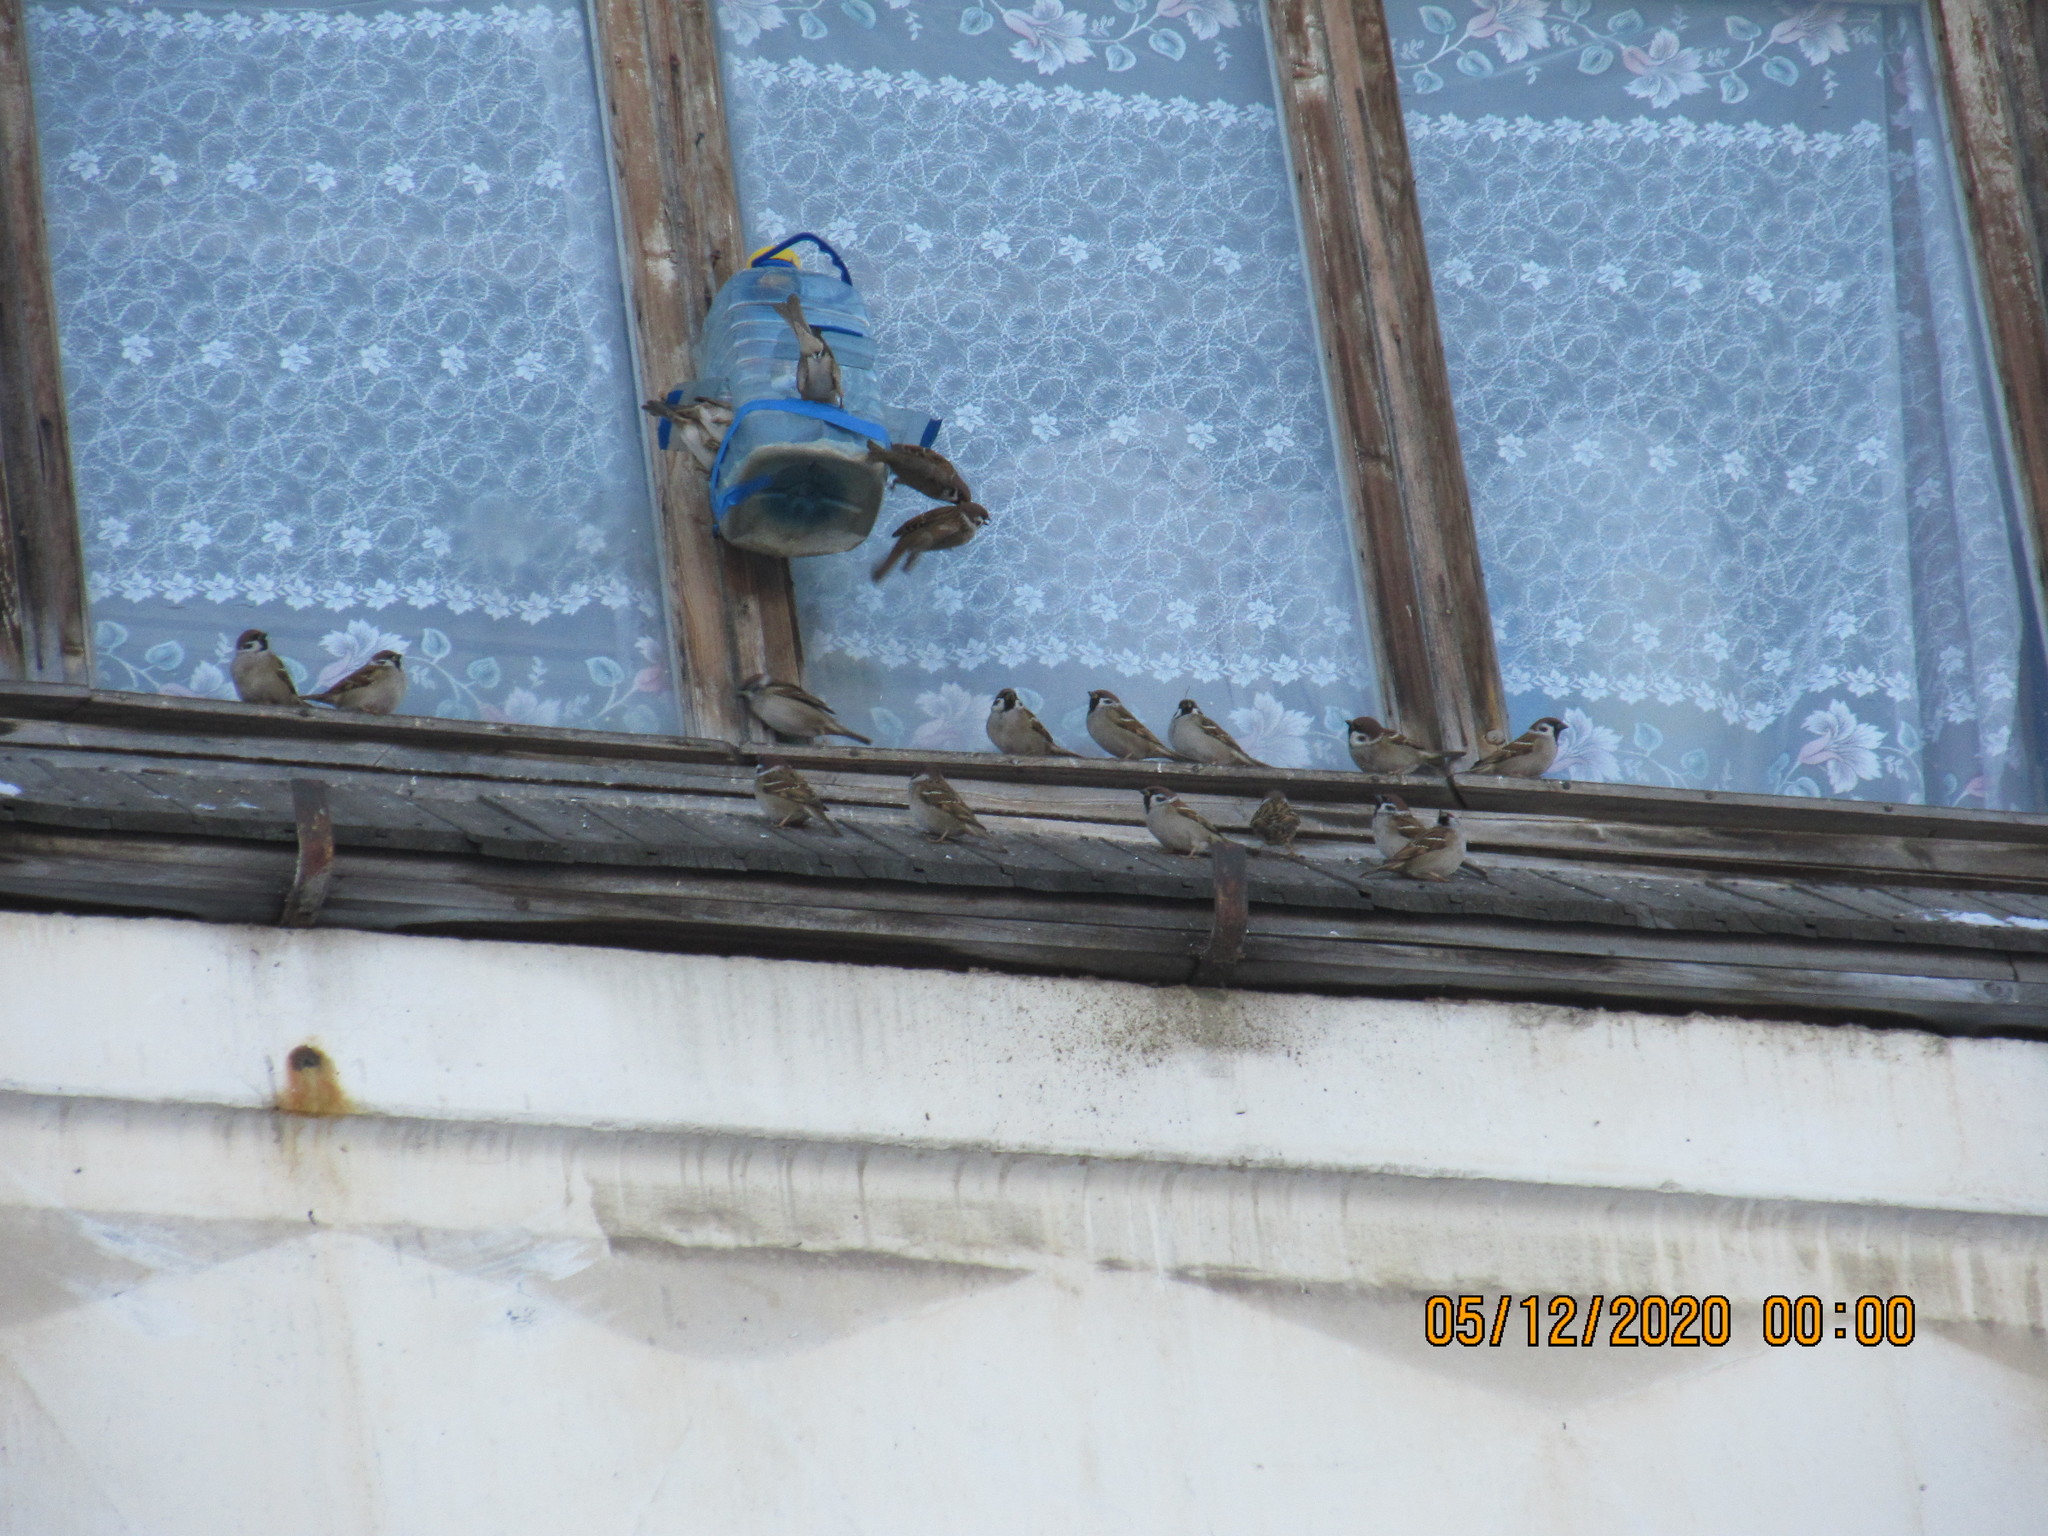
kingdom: Animalia
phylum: Chordata
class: Aves
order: Passeriformes
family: Passeridae
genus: Passer
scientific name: Passer montanus
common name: Eurasian tree sparrow
